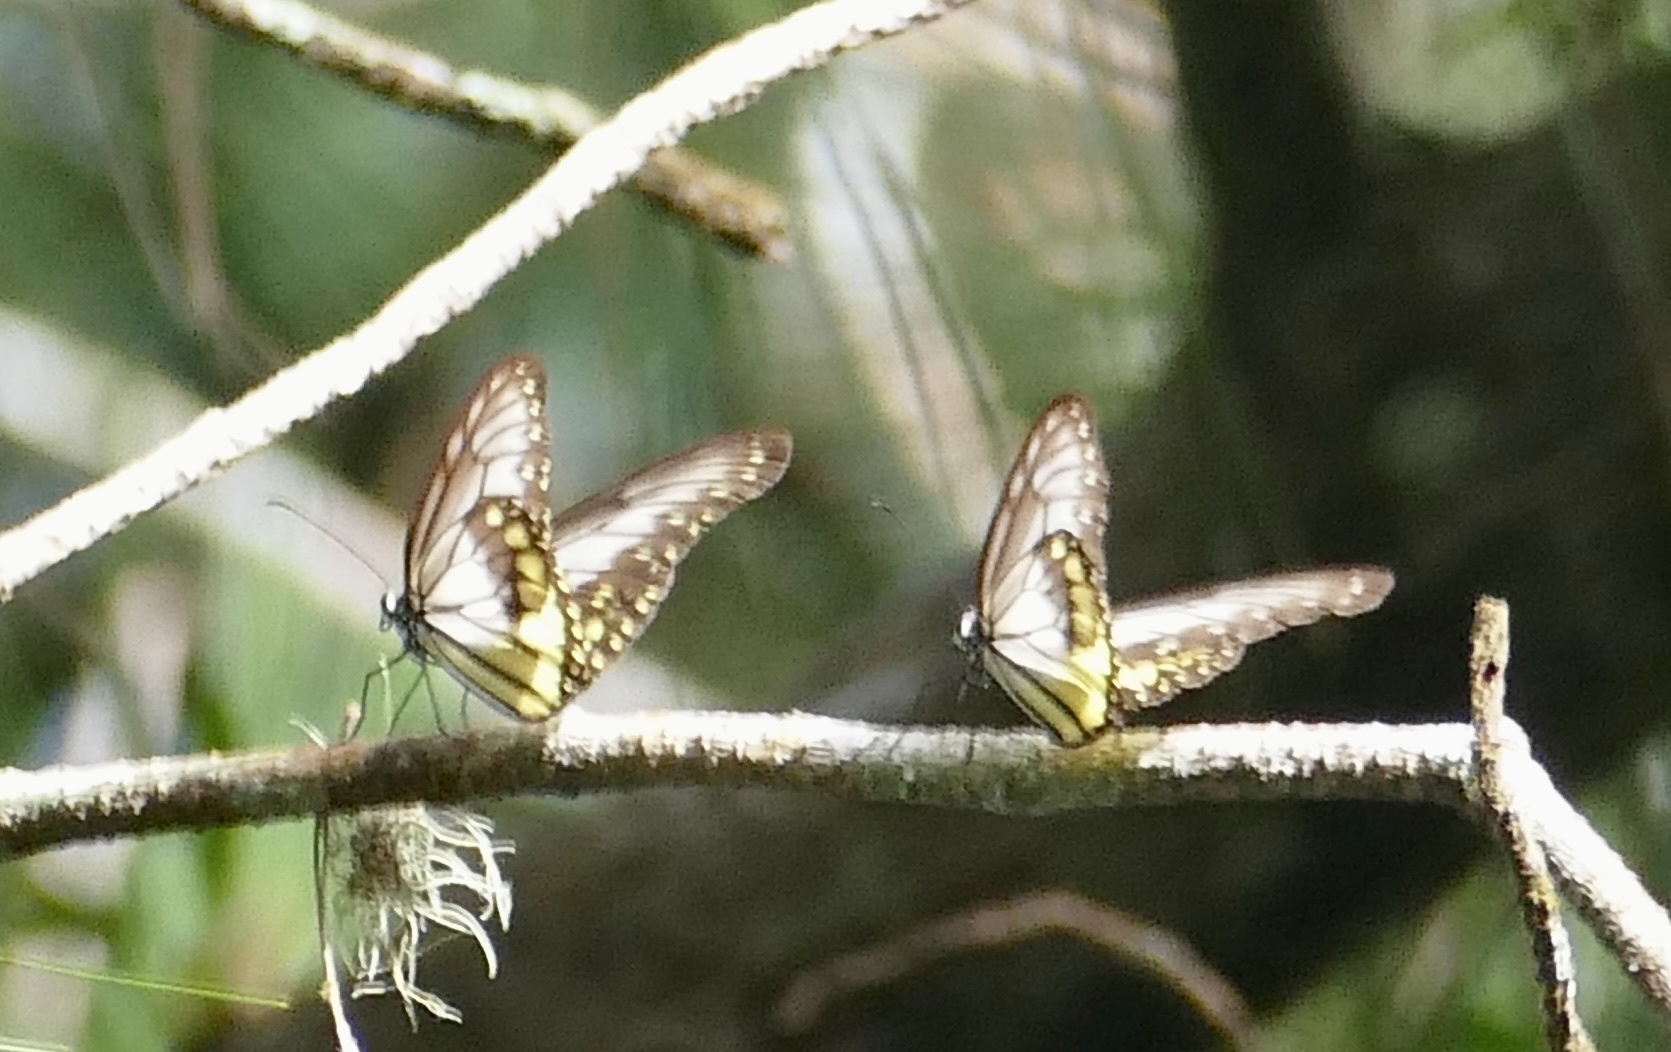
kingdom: Animalia
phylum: Arthropoda
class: Insecta
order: Lepidoptera
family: Nymphalidae
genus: Ideopsis
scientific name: Ideopsis vitrea
